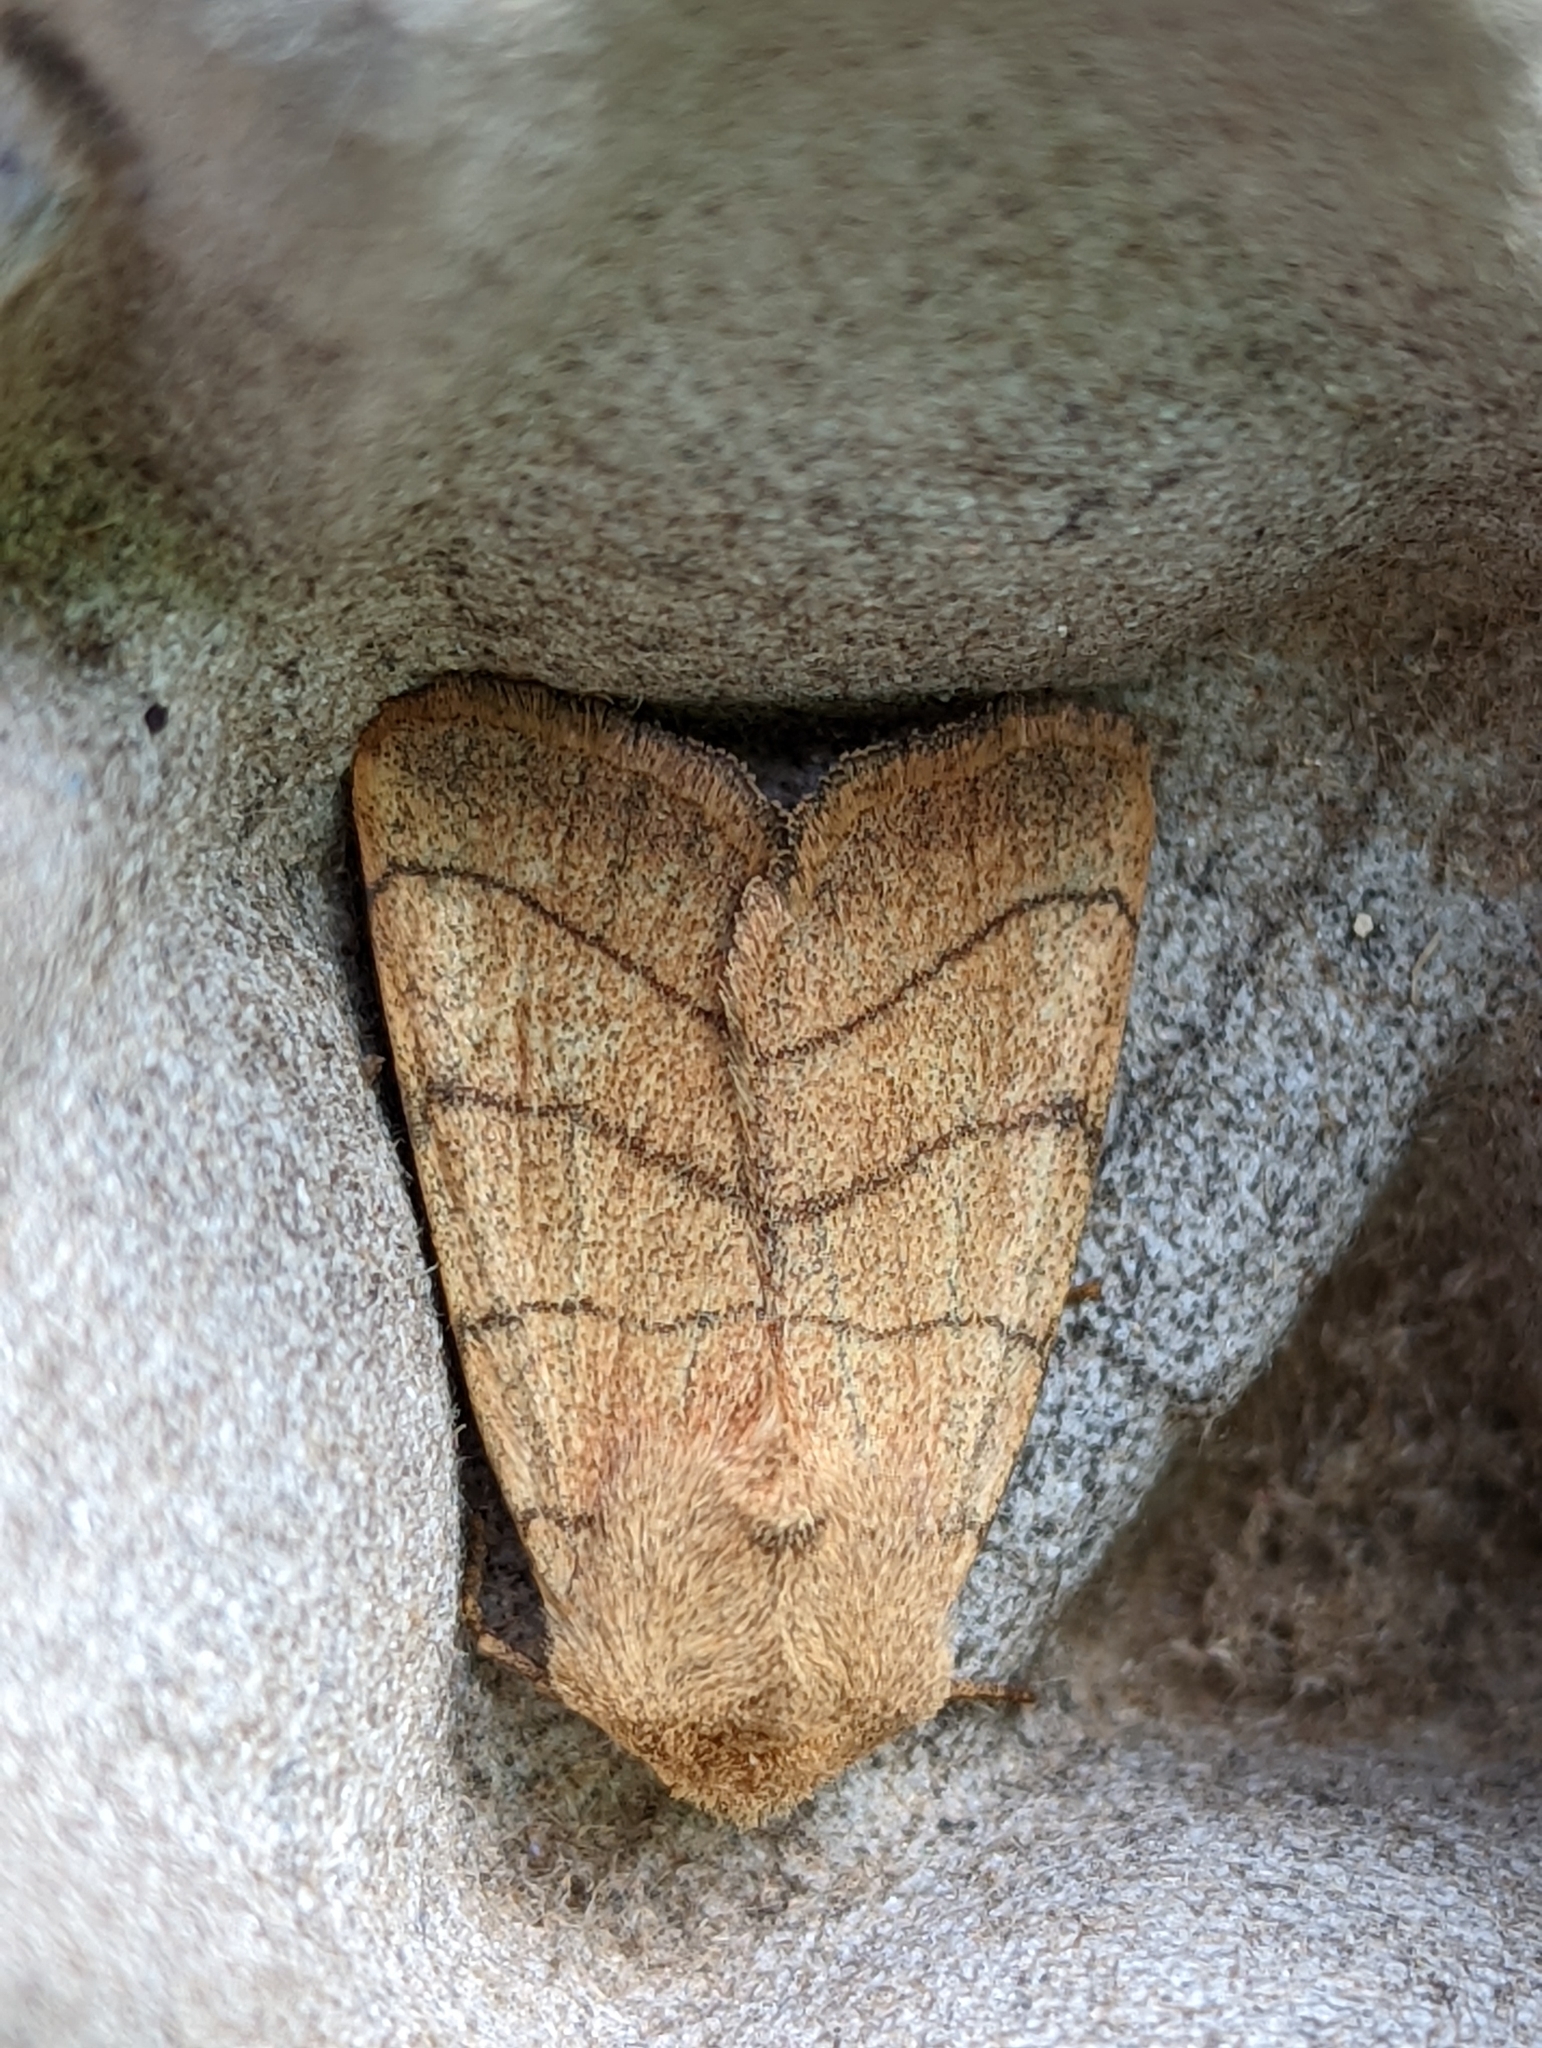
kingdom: Animalia
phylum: Arthropoda
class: Insecta
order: Lepidoptera
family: Noctuidae
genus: Charanyca
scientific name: Charanyca trigrammica
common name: Treble lines
